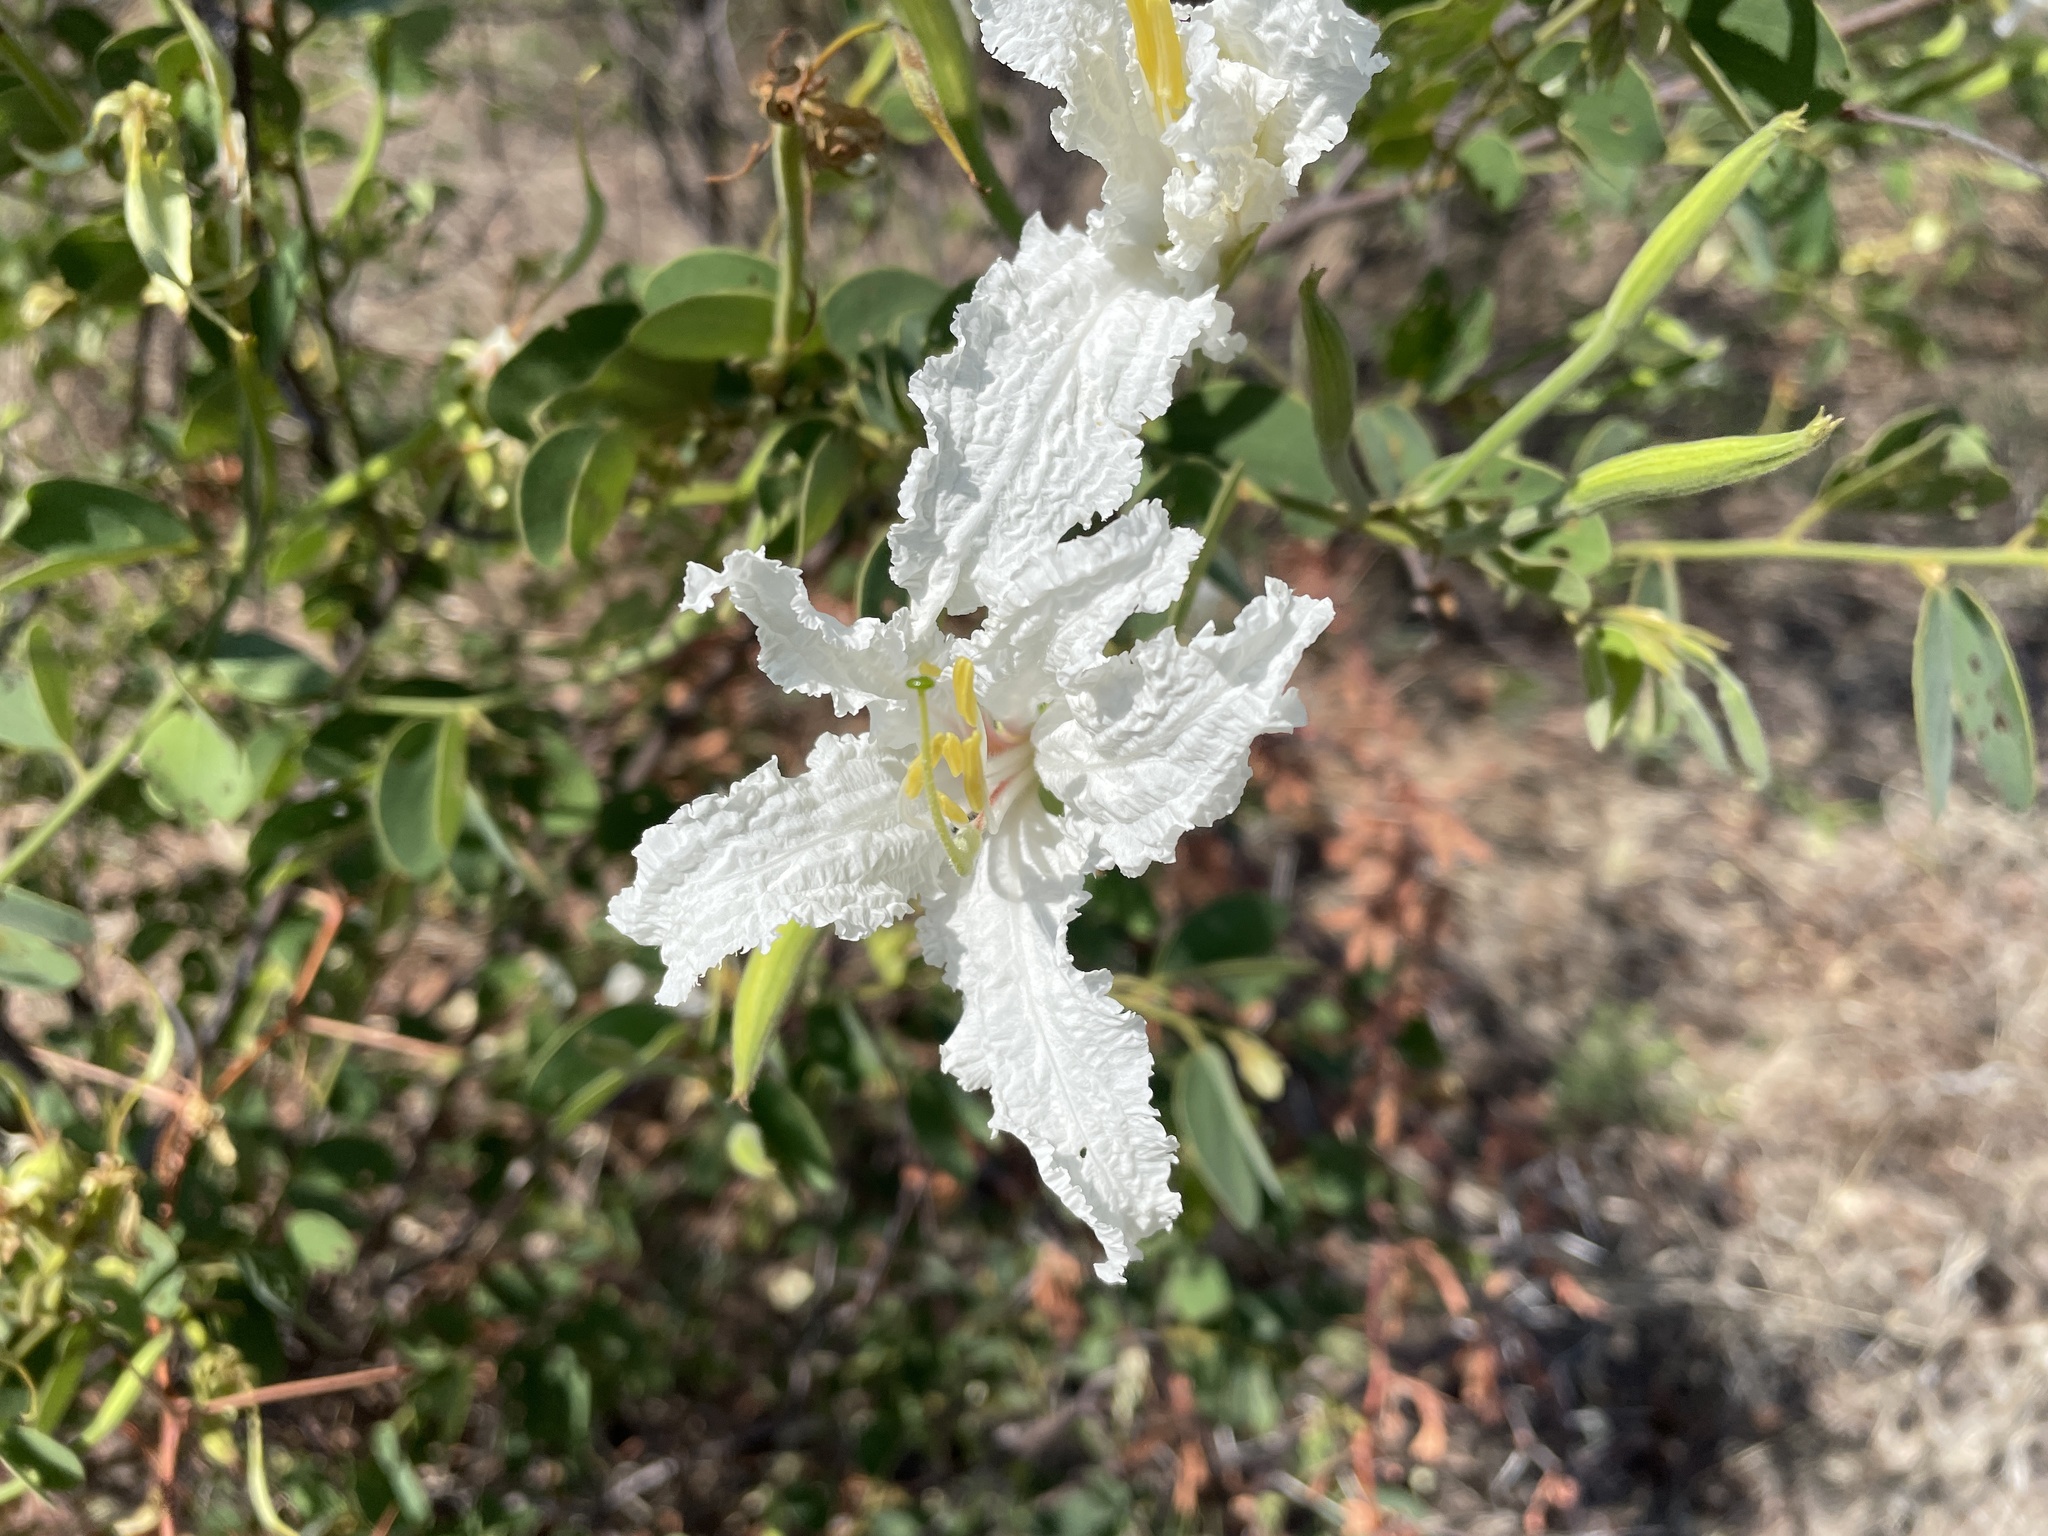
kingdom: Plantae
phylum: Tracheophyta
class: Magnoliopsida
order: Fabales
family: Fabaceae
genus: Bauhinia
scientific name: Bauhinia petersiana
